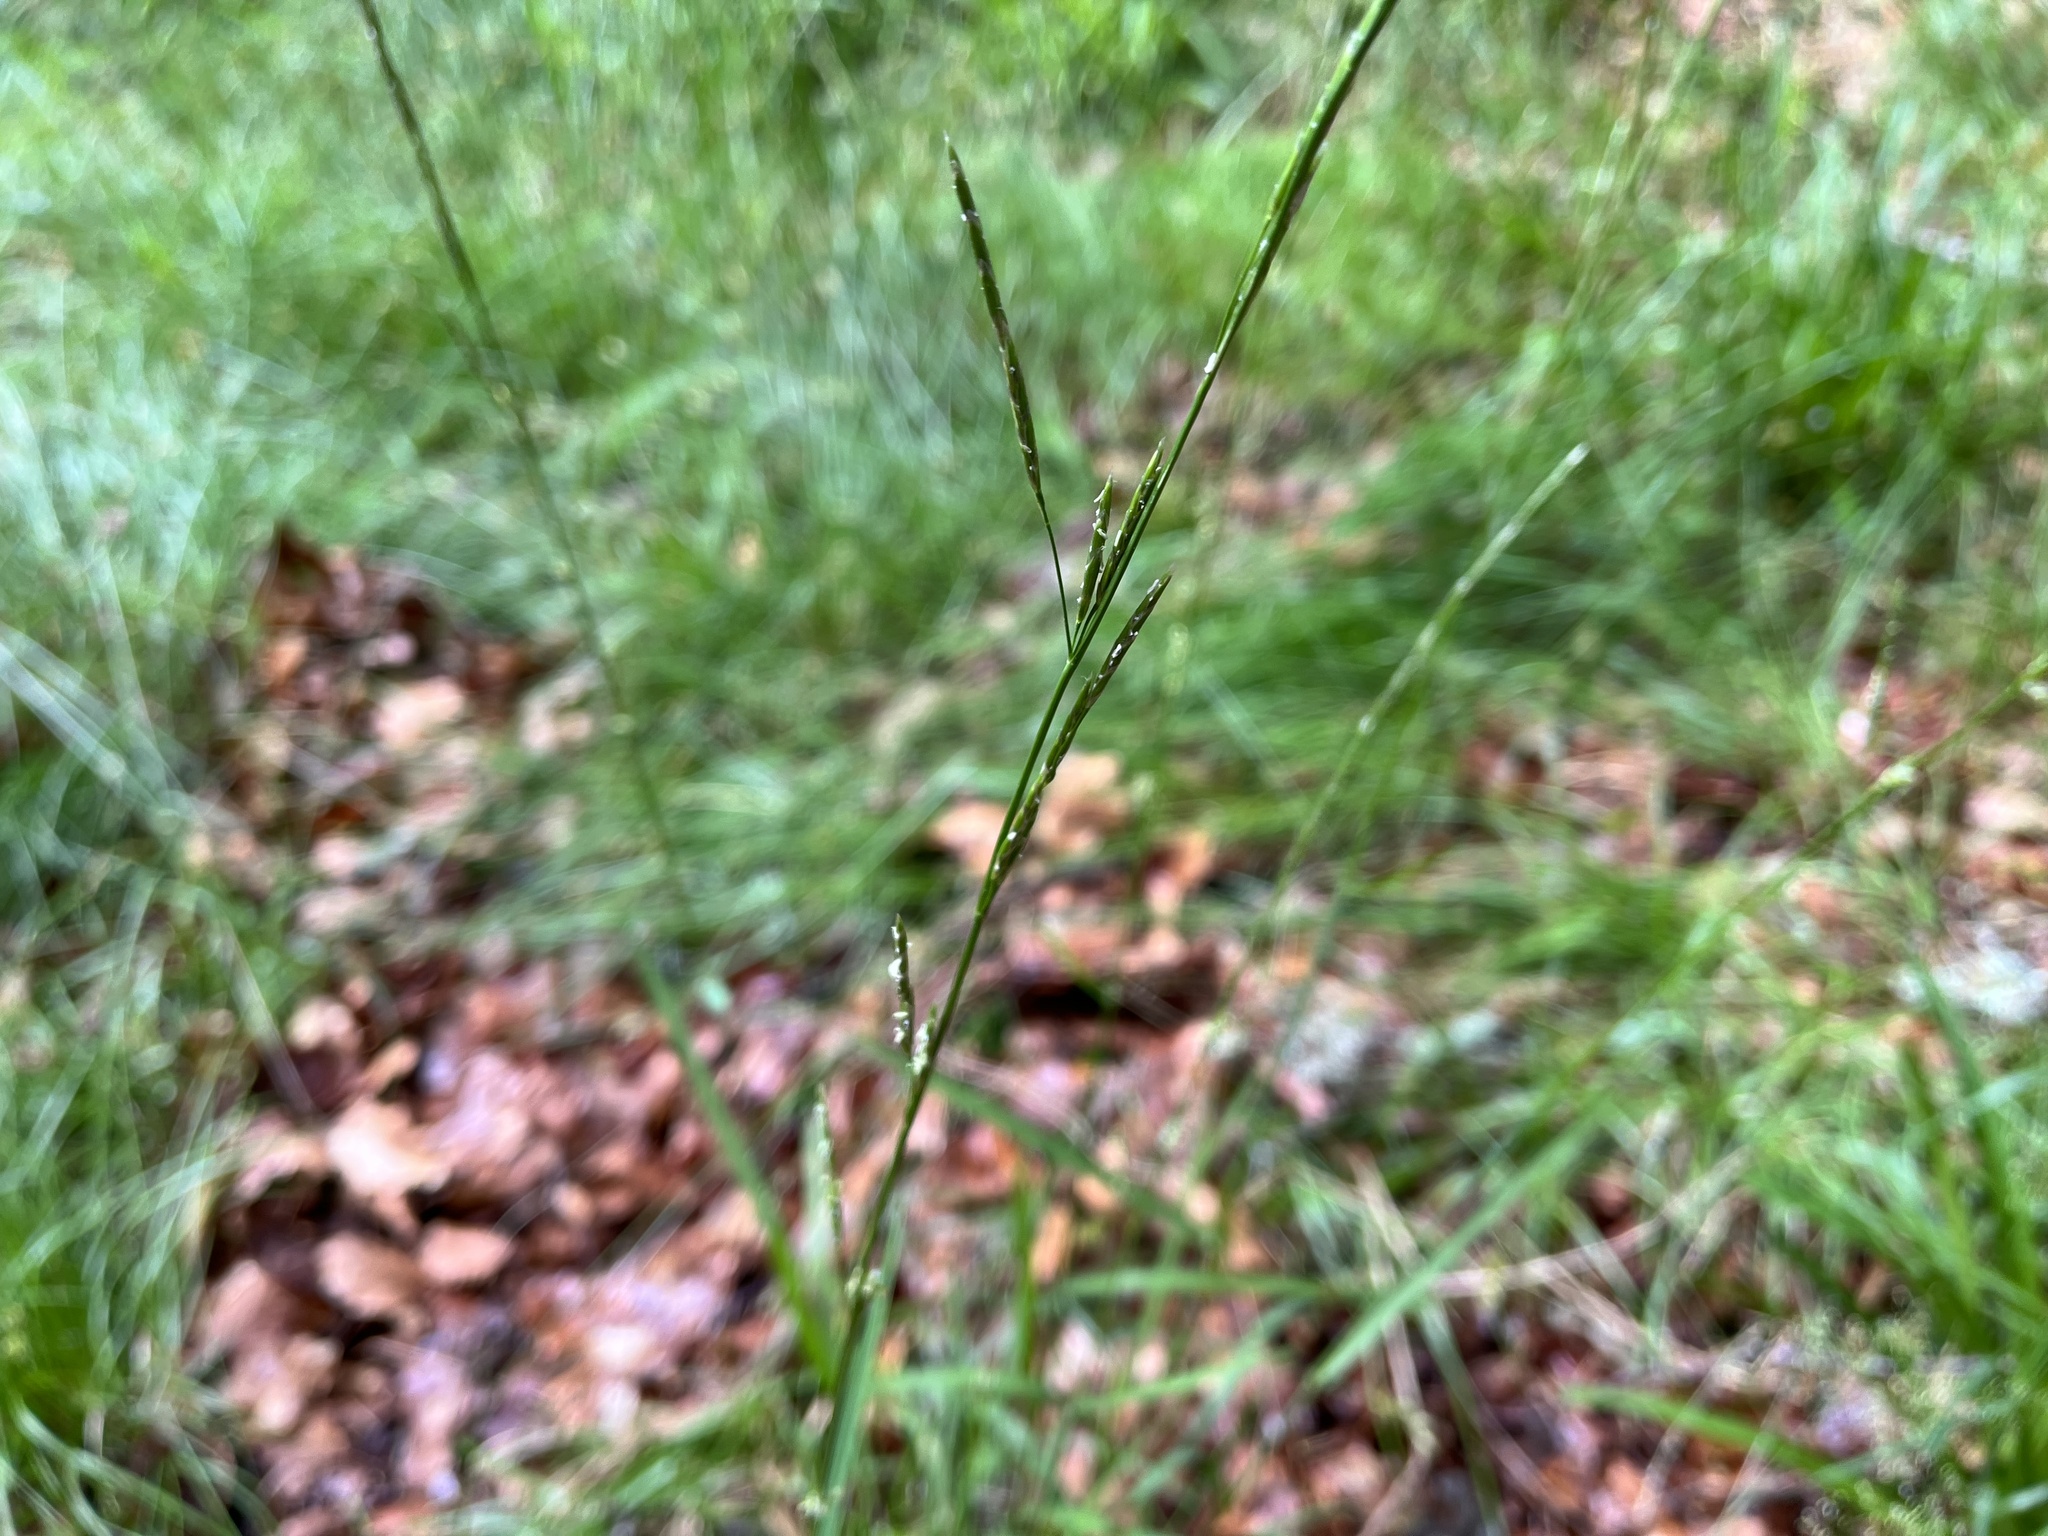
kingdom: Plantae
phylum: Tracheophyta
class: Liliopsida
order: Poales
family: Poaceae
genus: Glyceria
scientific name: Glyceria fluitans
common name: Floating sweet-grass
